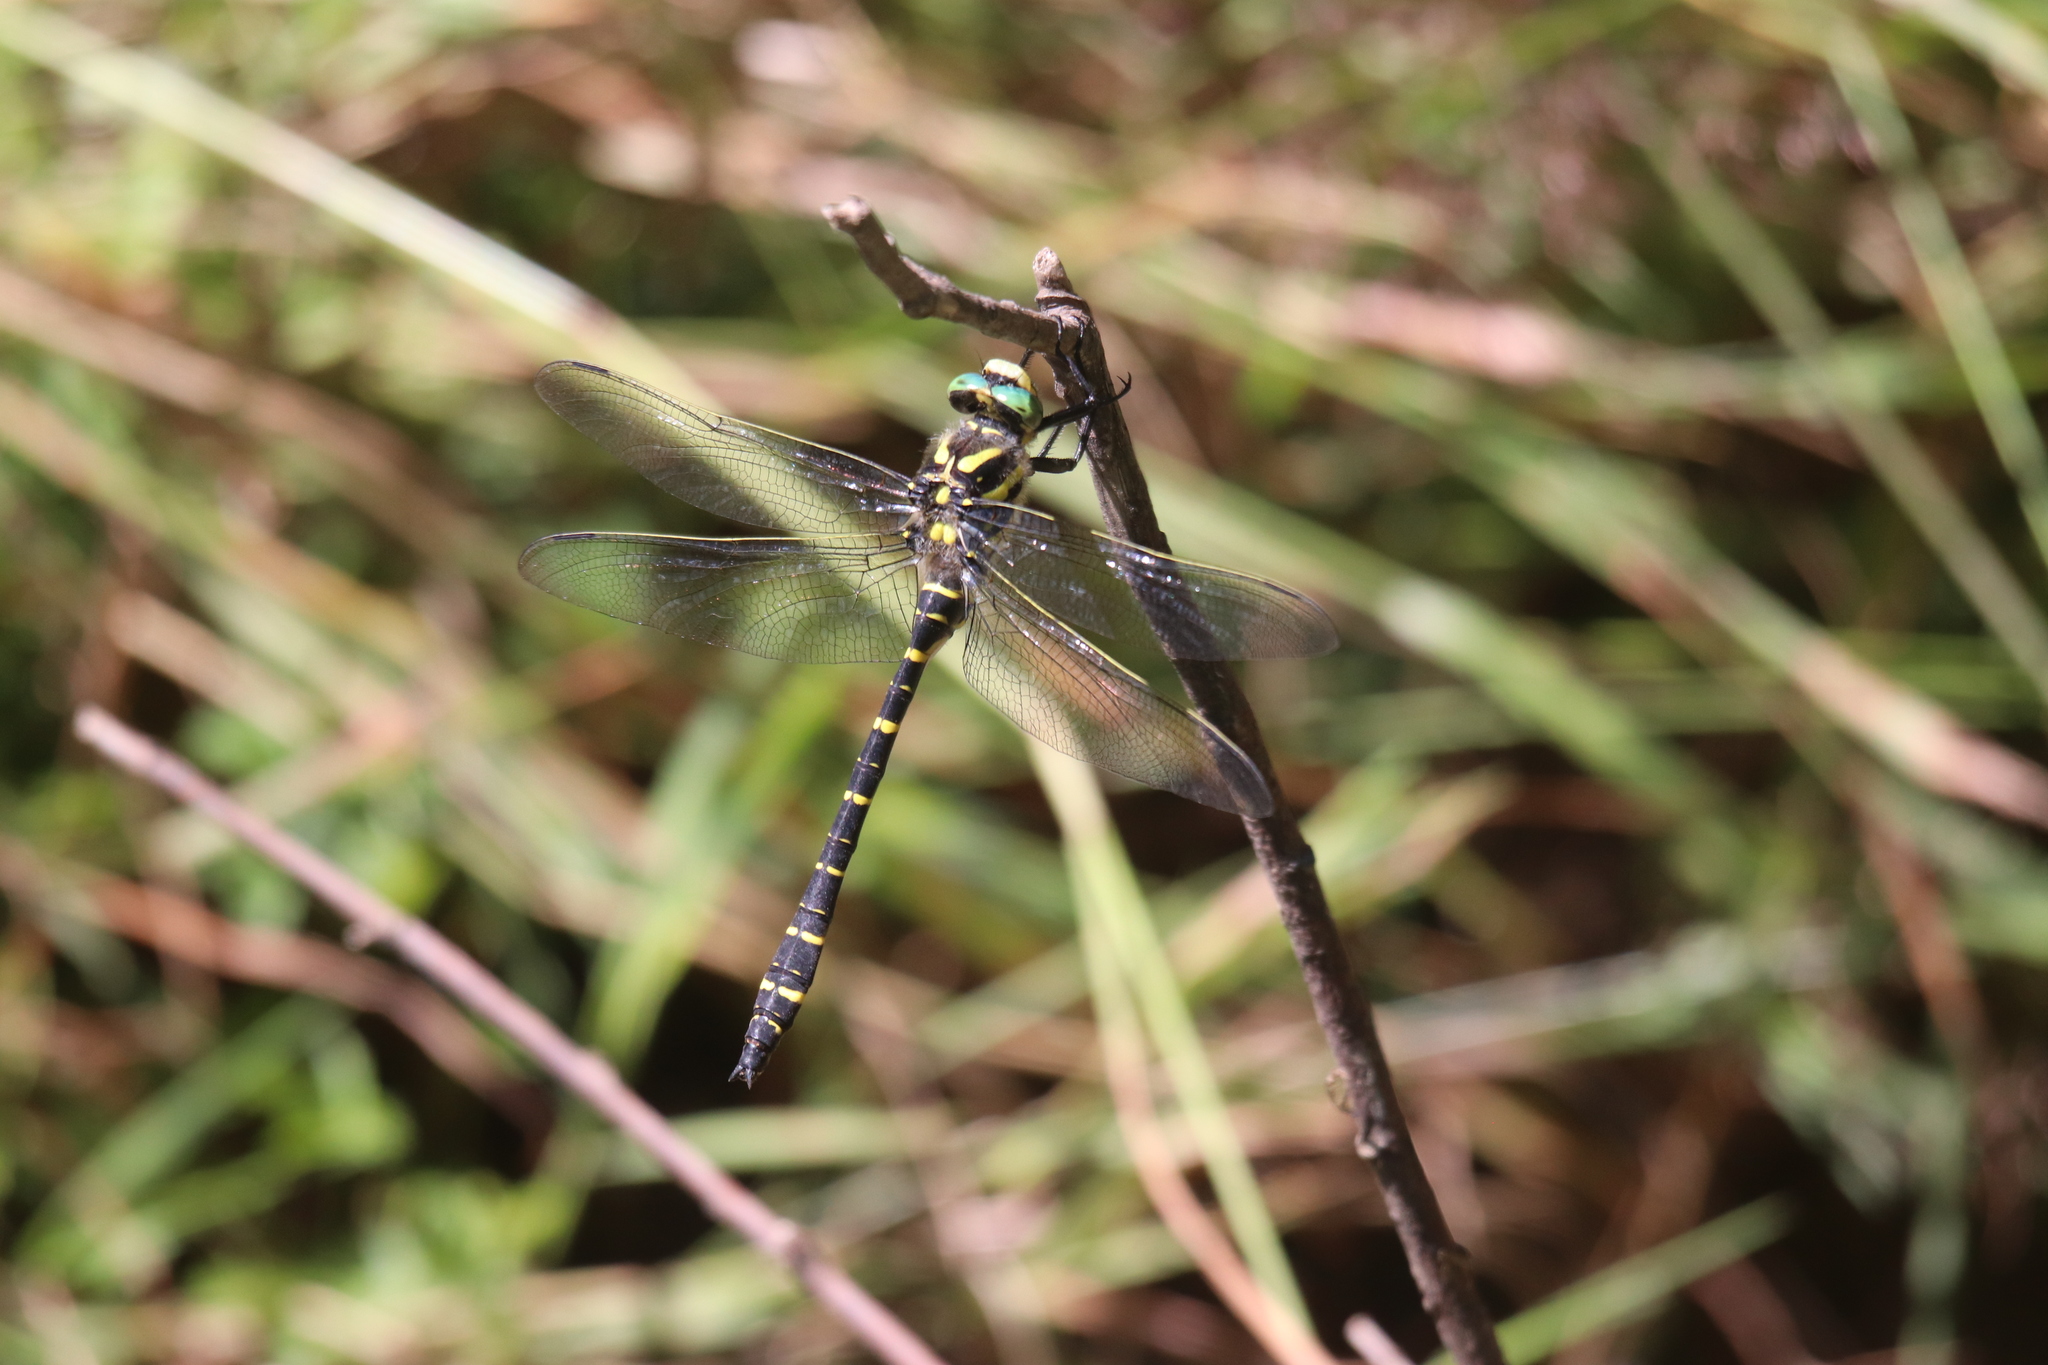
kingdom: Animalia
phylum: Arthropoda
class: Insecta
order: Odonata
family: Cordulegastridae
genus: Cordulegaster
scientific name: Cordulegaster boltonii
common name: Golden-ringed dragonfly
